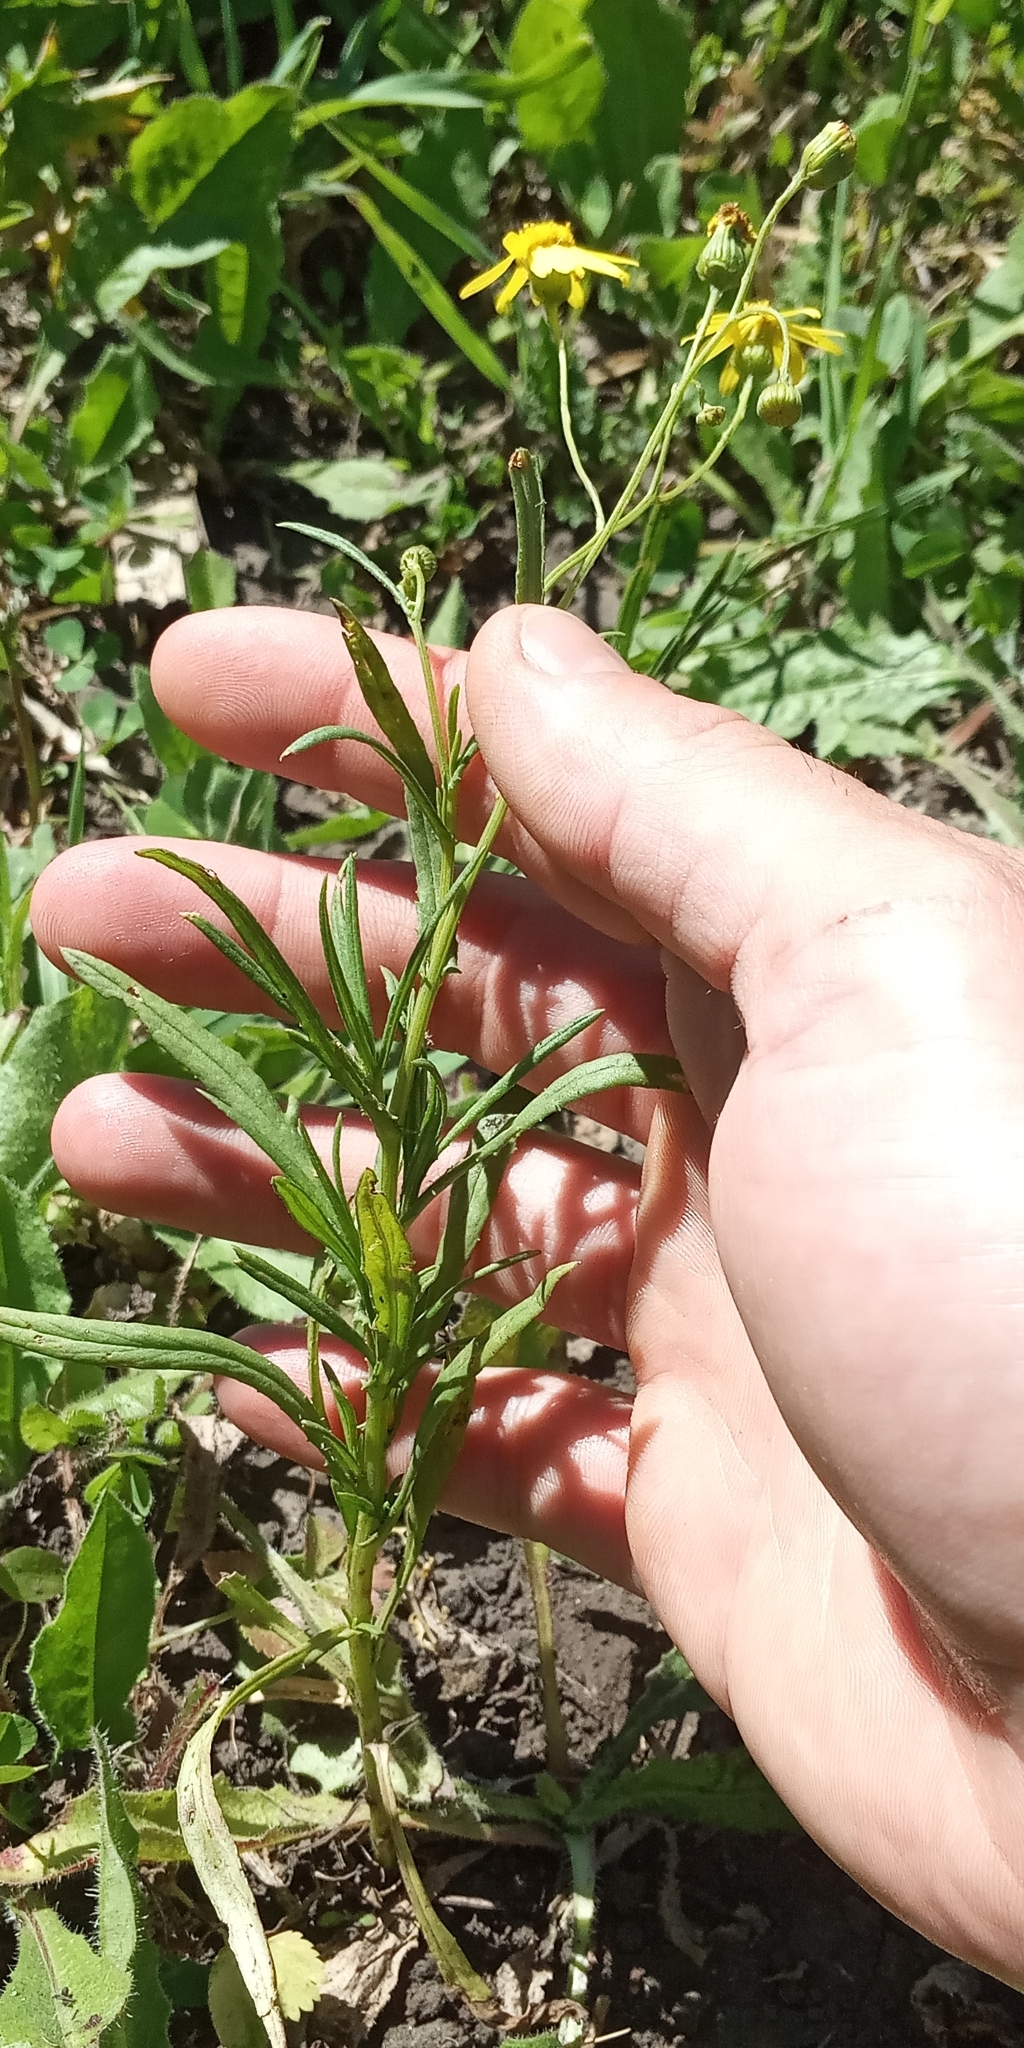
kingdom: Plantae
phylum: Tracheophyta
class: Magnoliopsida
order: Asterales
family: Asteraceae
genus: Senecio
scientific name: Senecio madagascariensis
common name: Madagascar ragwort
